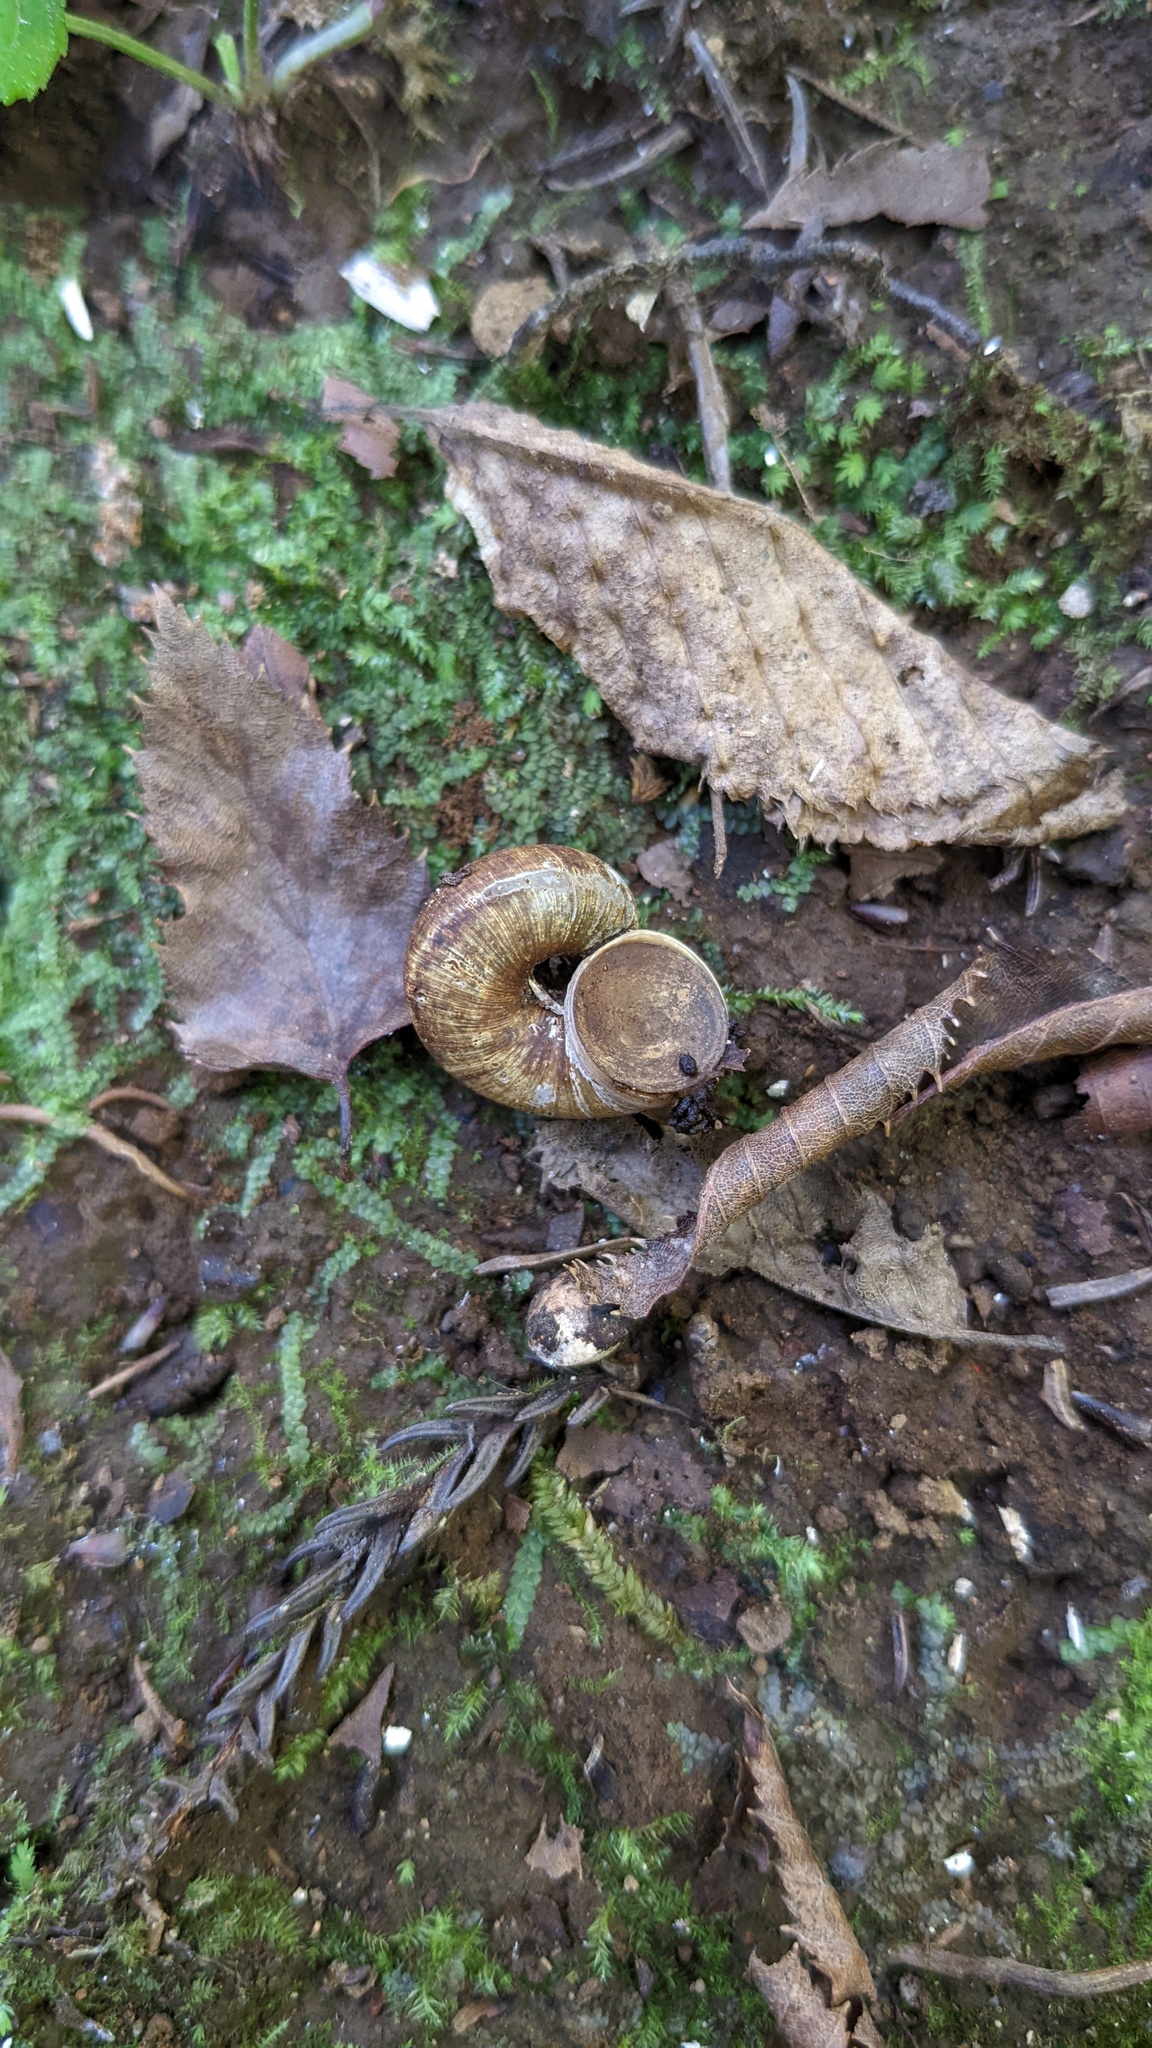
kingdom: Animalia
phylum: Mollusca
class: Gastropoda
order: Architaenioglossa
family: Cyclophoridae
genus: Cyclophorus
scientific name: Cyclophorus herklotsi
